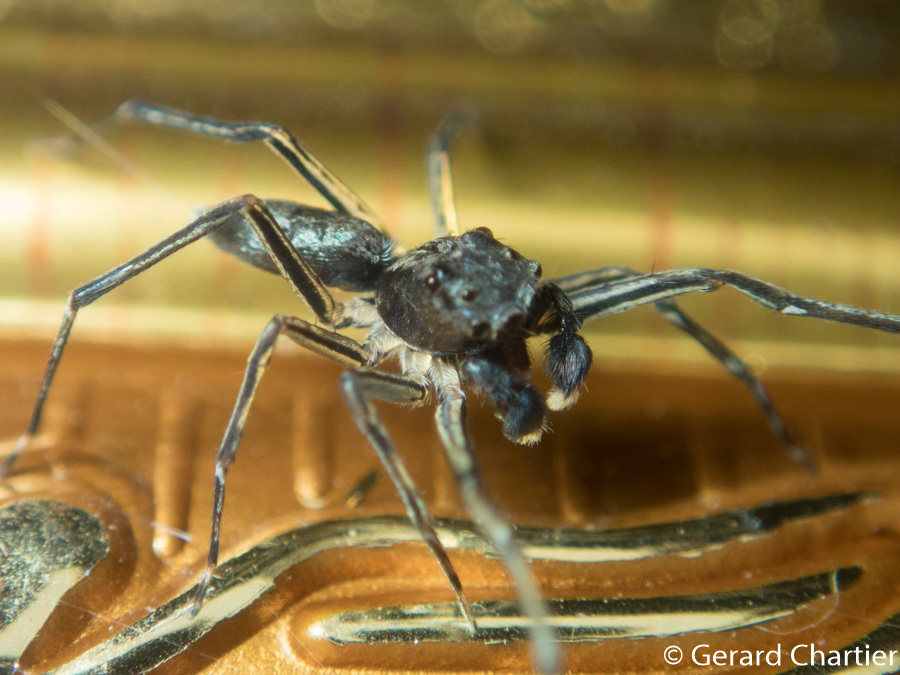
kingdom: Animalia
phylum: Arthropoda
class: Arachnida
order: Araneae
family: Salticidae
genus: Spartaeus
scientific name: Spartaeus spinimanus
